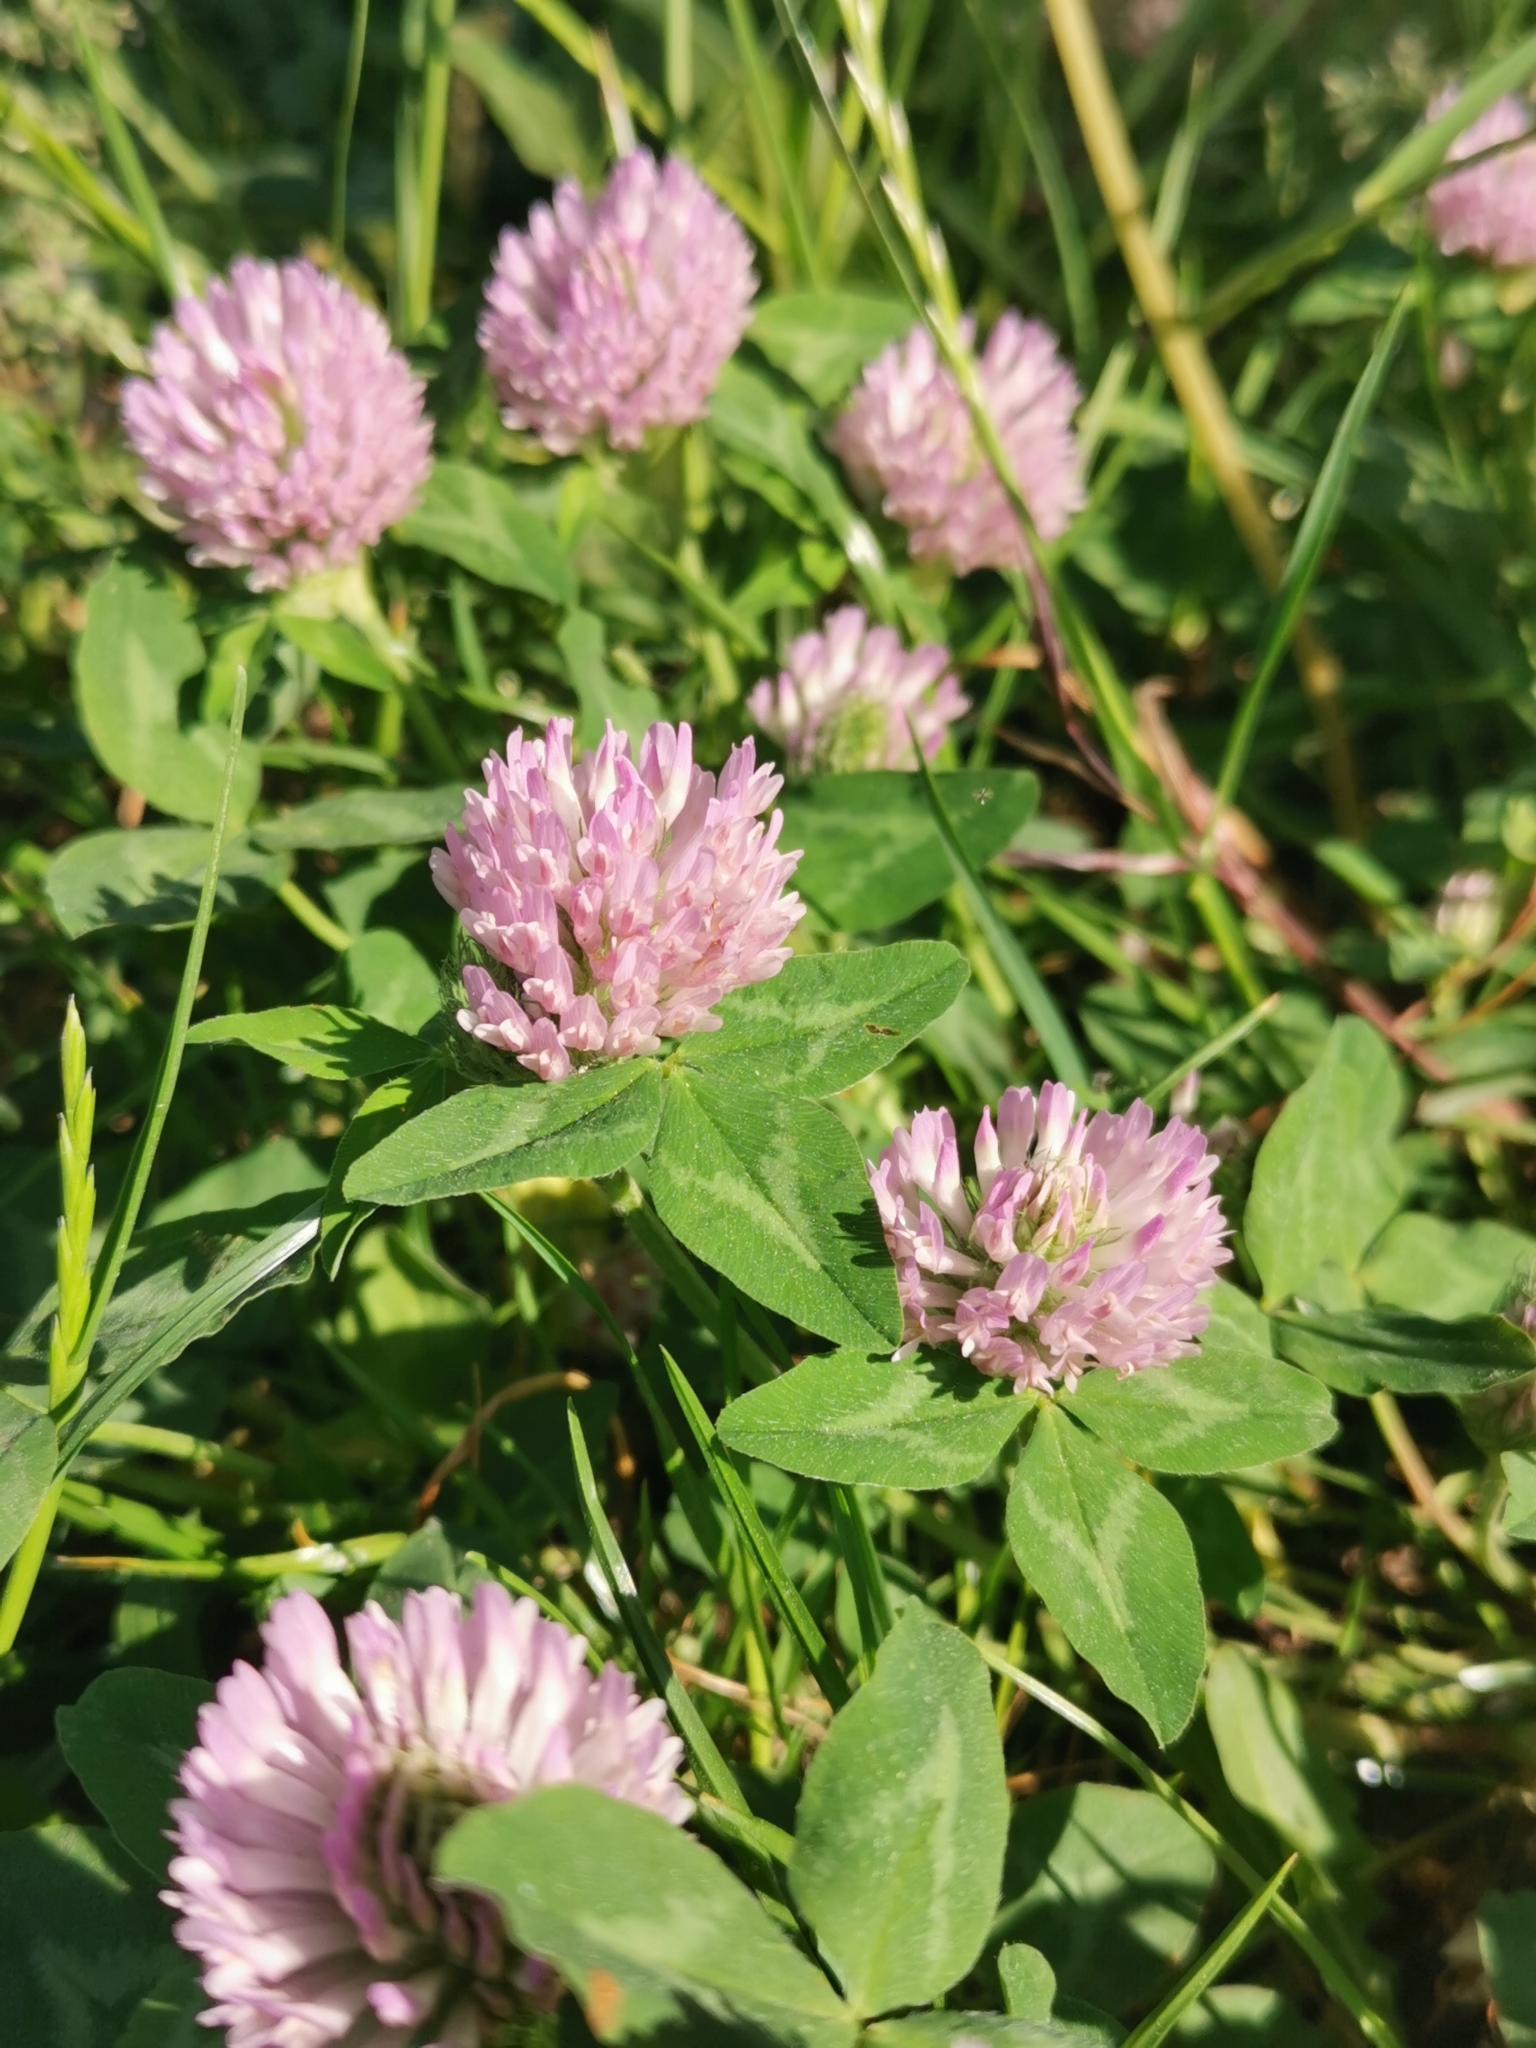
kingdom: Plantae
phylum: Tracheophyta
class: Magnoliopsida
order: Fabales
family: Fabaceae
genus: Trifolium
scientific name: Trifolium pratense
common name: Red clover
